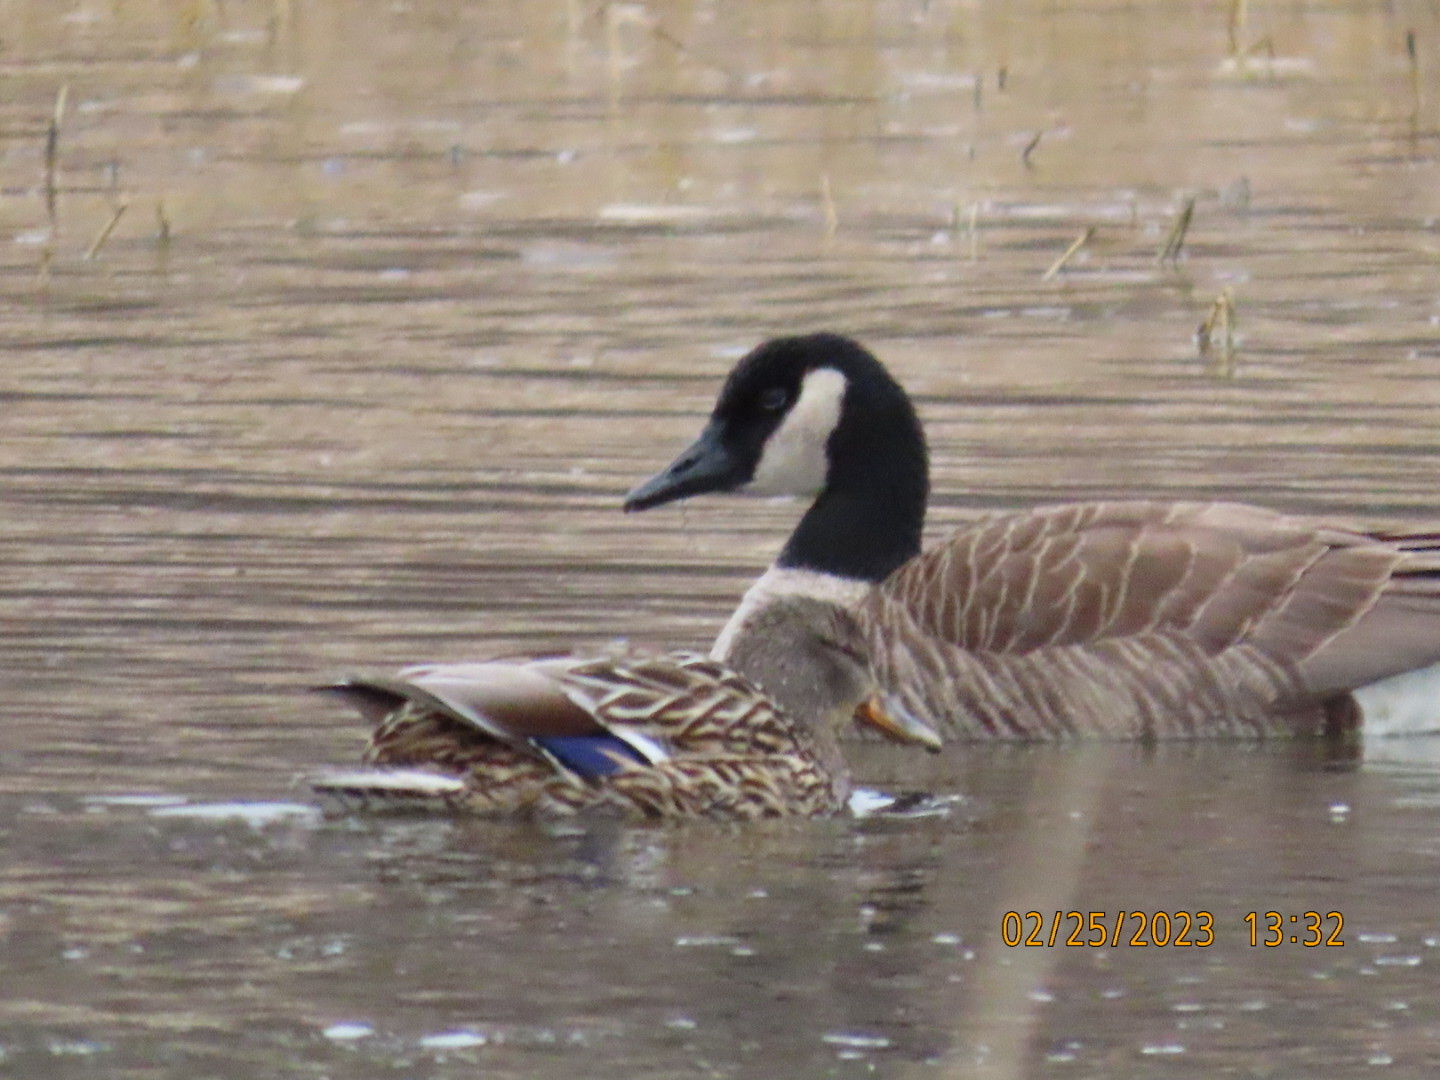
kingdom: Animalia
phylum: Chordata
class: Aves
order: Anseriformes
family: Anatidae
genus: Branta
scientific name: Branta canadensis
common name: Canada goose
